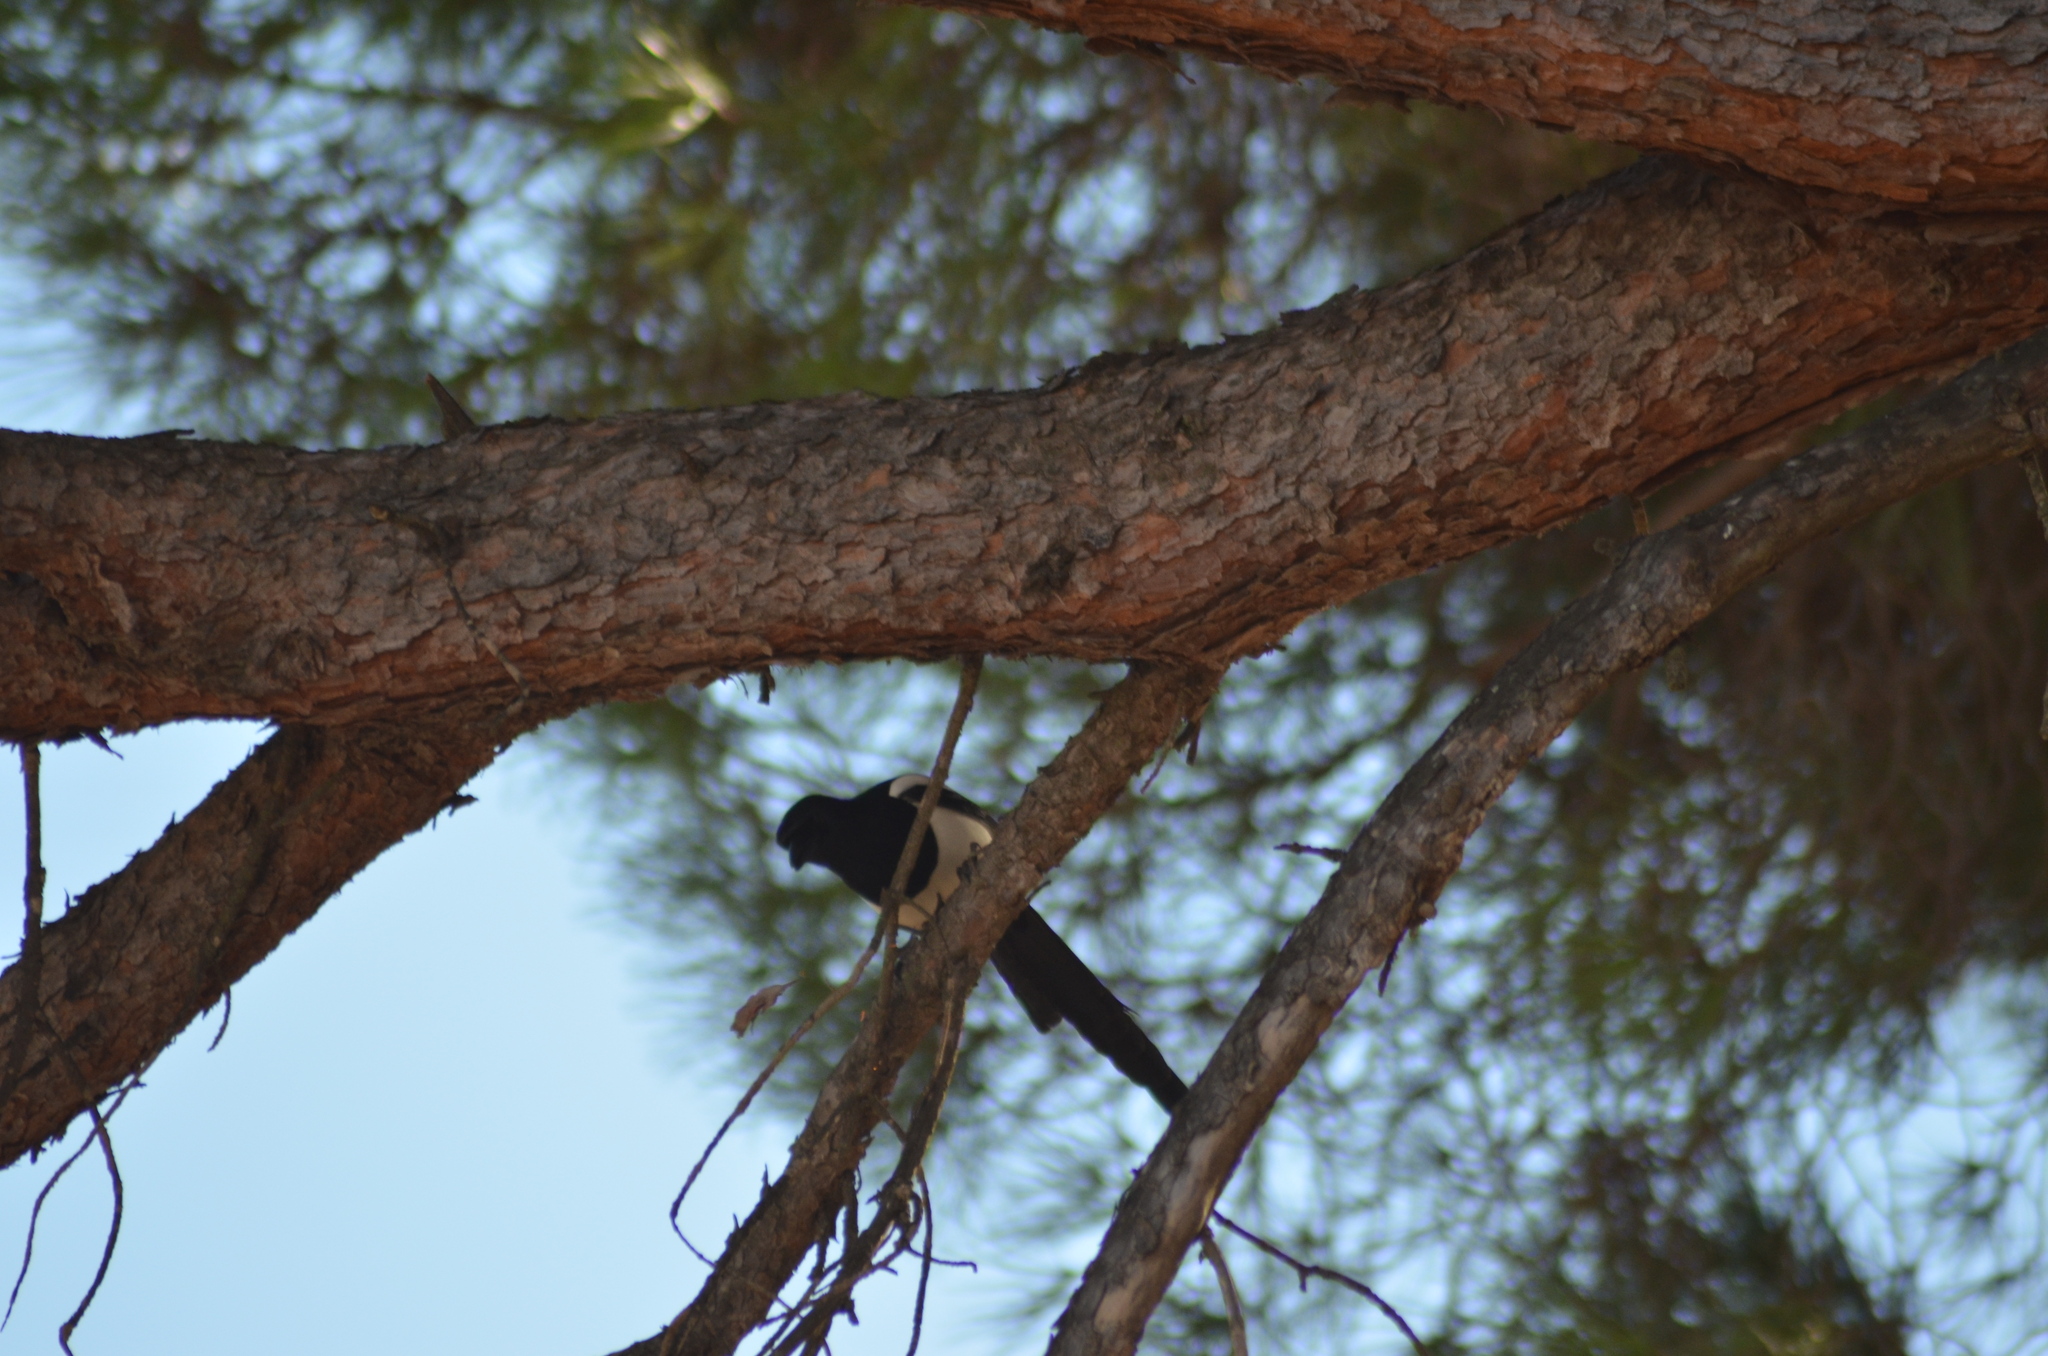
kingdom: Animalia
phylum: Chordata
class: Aves
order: Passeriformes
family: Corvidae
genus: Pica
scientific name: Pica pica
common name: Eurasian magpie
